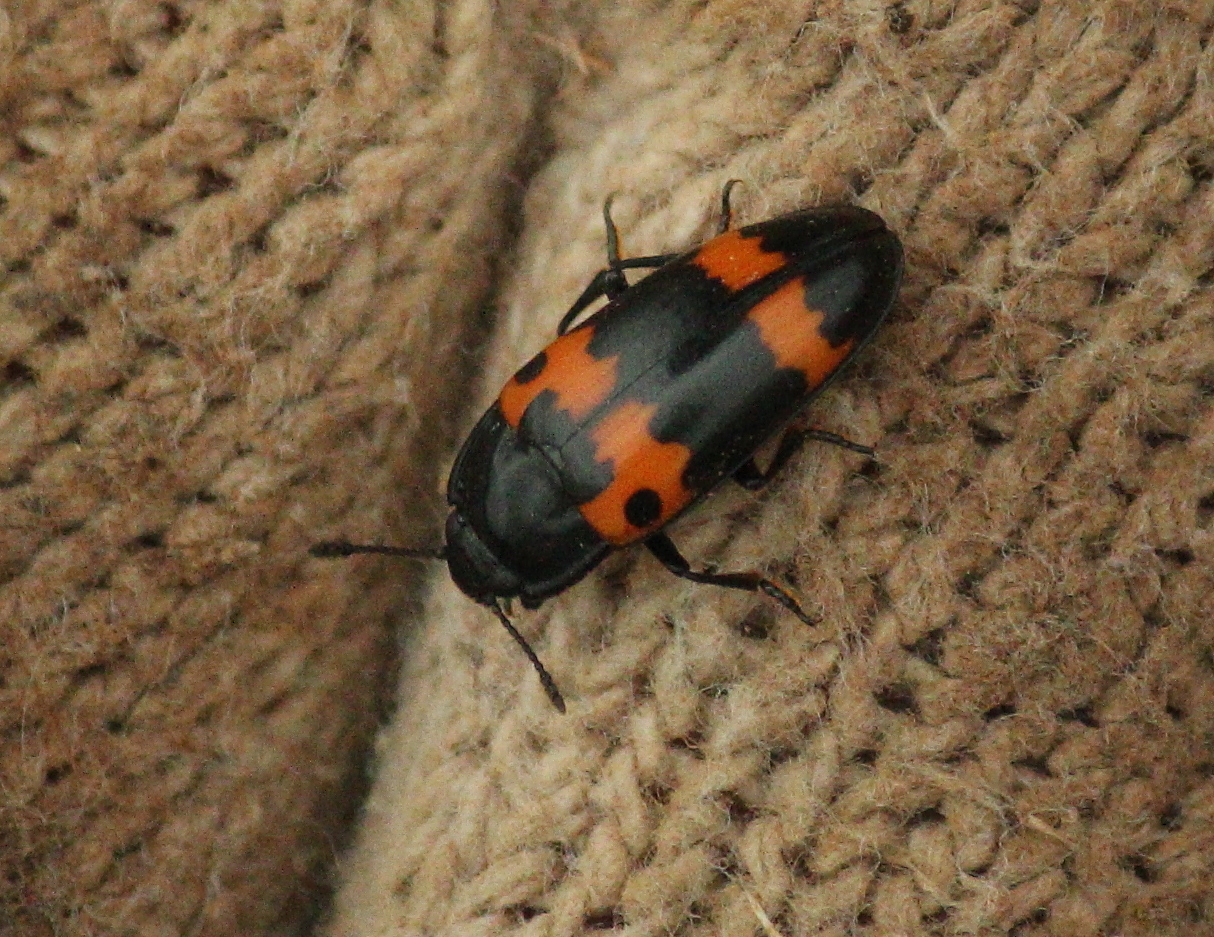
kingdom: Animalia
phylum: Arthropoda
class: Insecta
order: Coleoptera
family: Erotylidae
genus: Megalodacne
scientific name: Megalodacne fasciata
